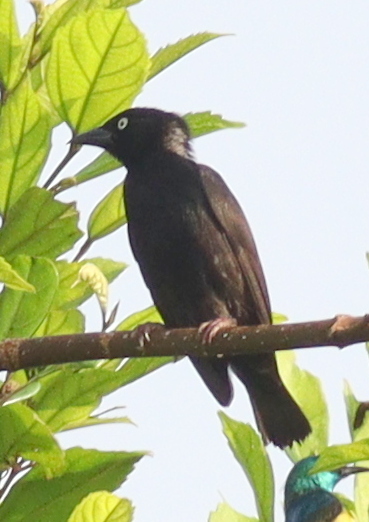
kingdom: Animalia
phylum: Chordata
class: Aves
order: Passeriformes
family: Ploceidae
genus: Ploceus
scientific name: Ploceus albinucha
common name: Maxwell's black weaver
